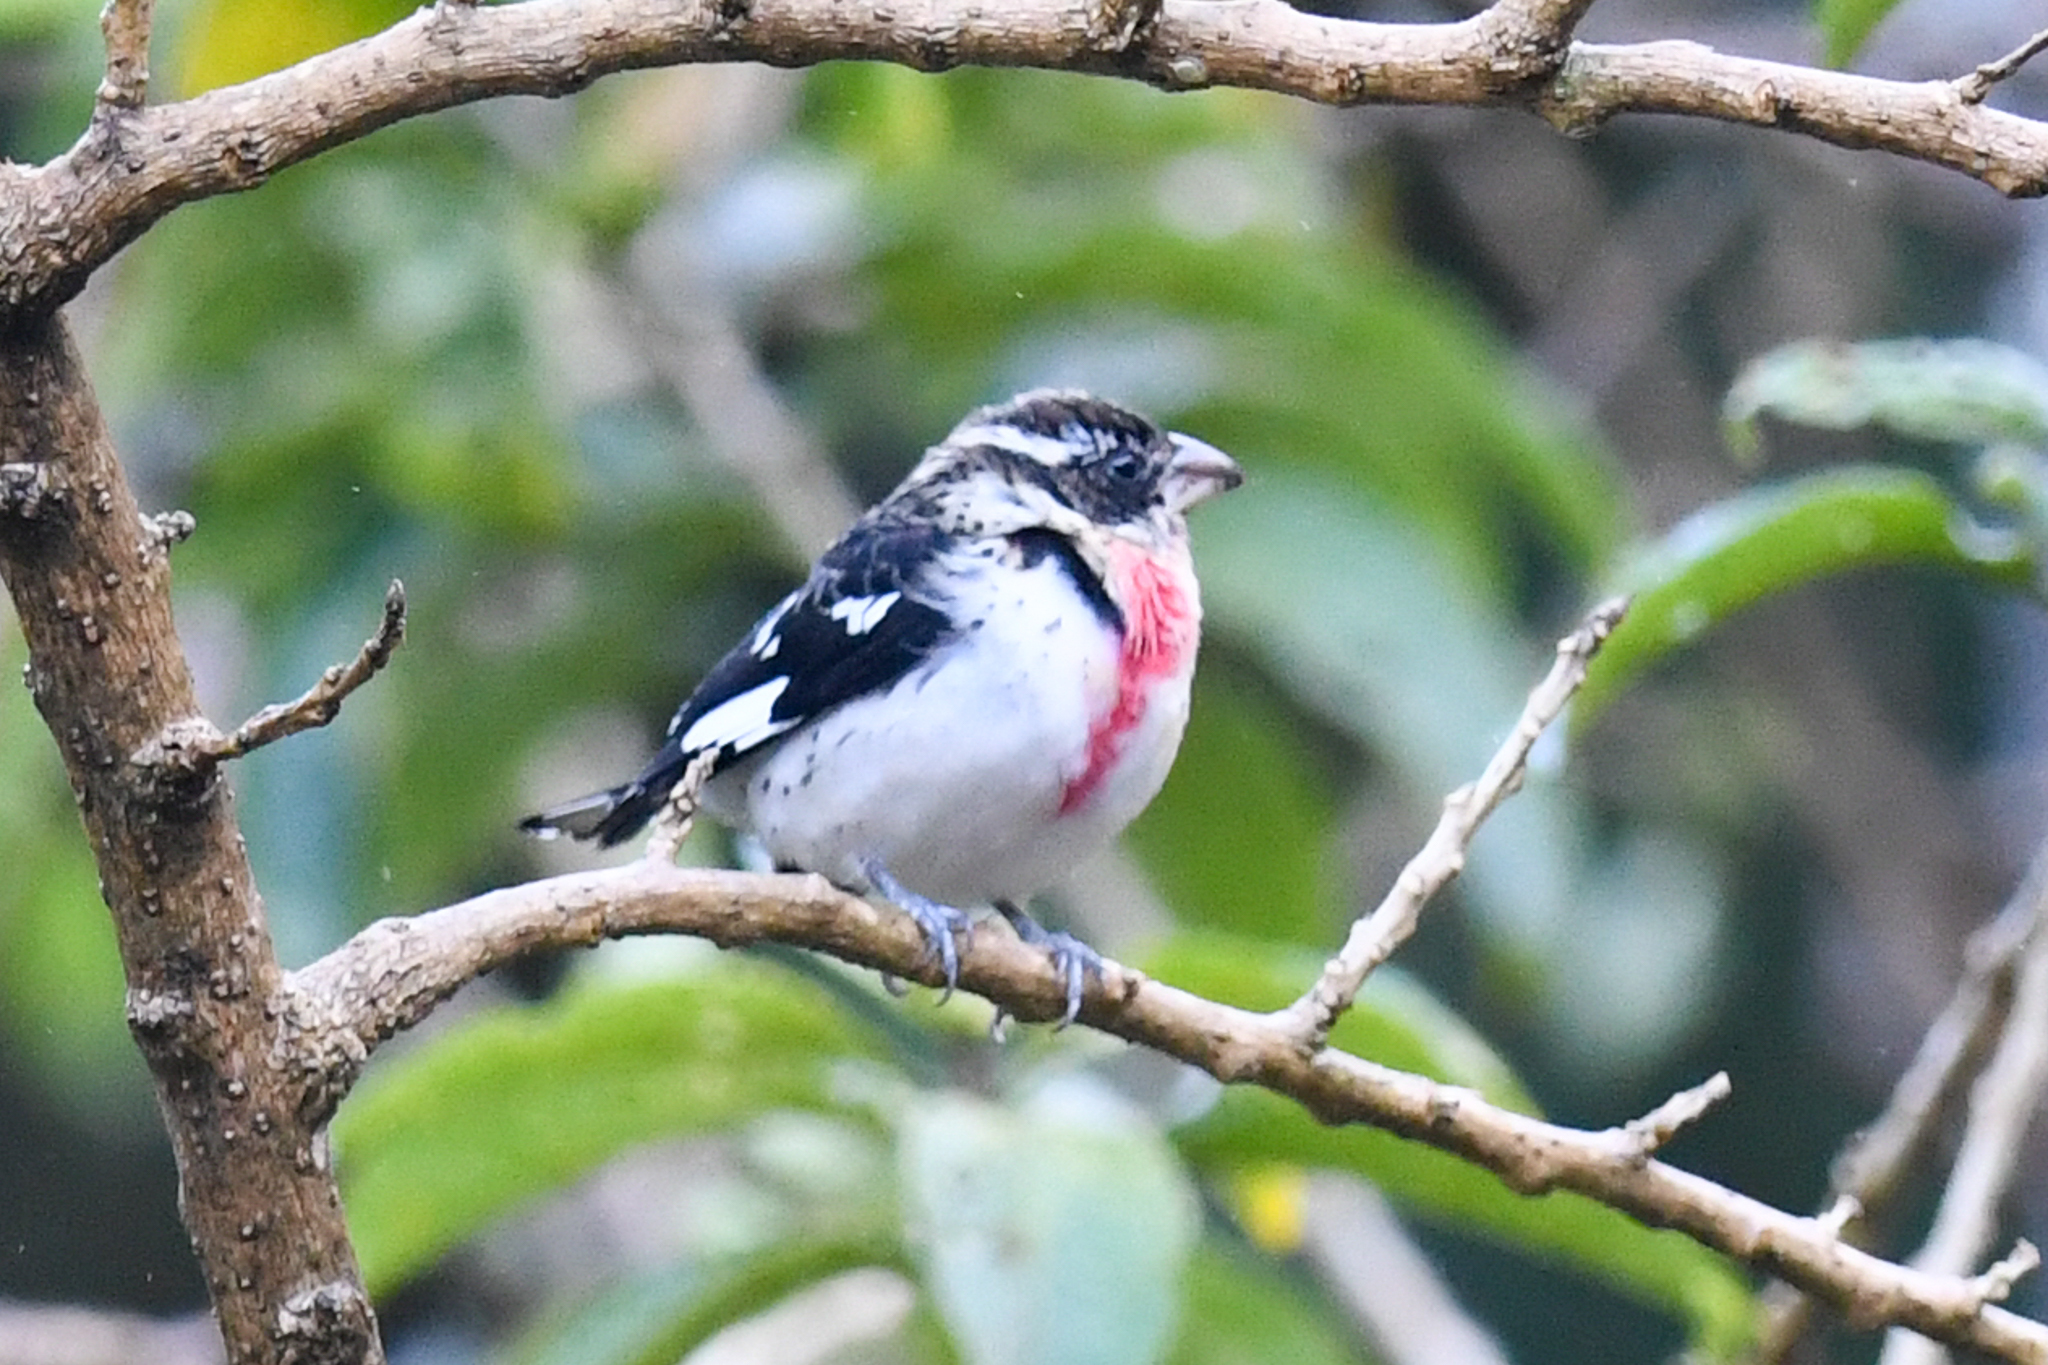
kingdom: Animalia
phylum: Chordata
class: Aves
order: Passeriformes
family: Cardinalidae
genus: Pheucticus
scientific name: Pheucticus ludovicianus
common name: Rose-breasted grosbeak
